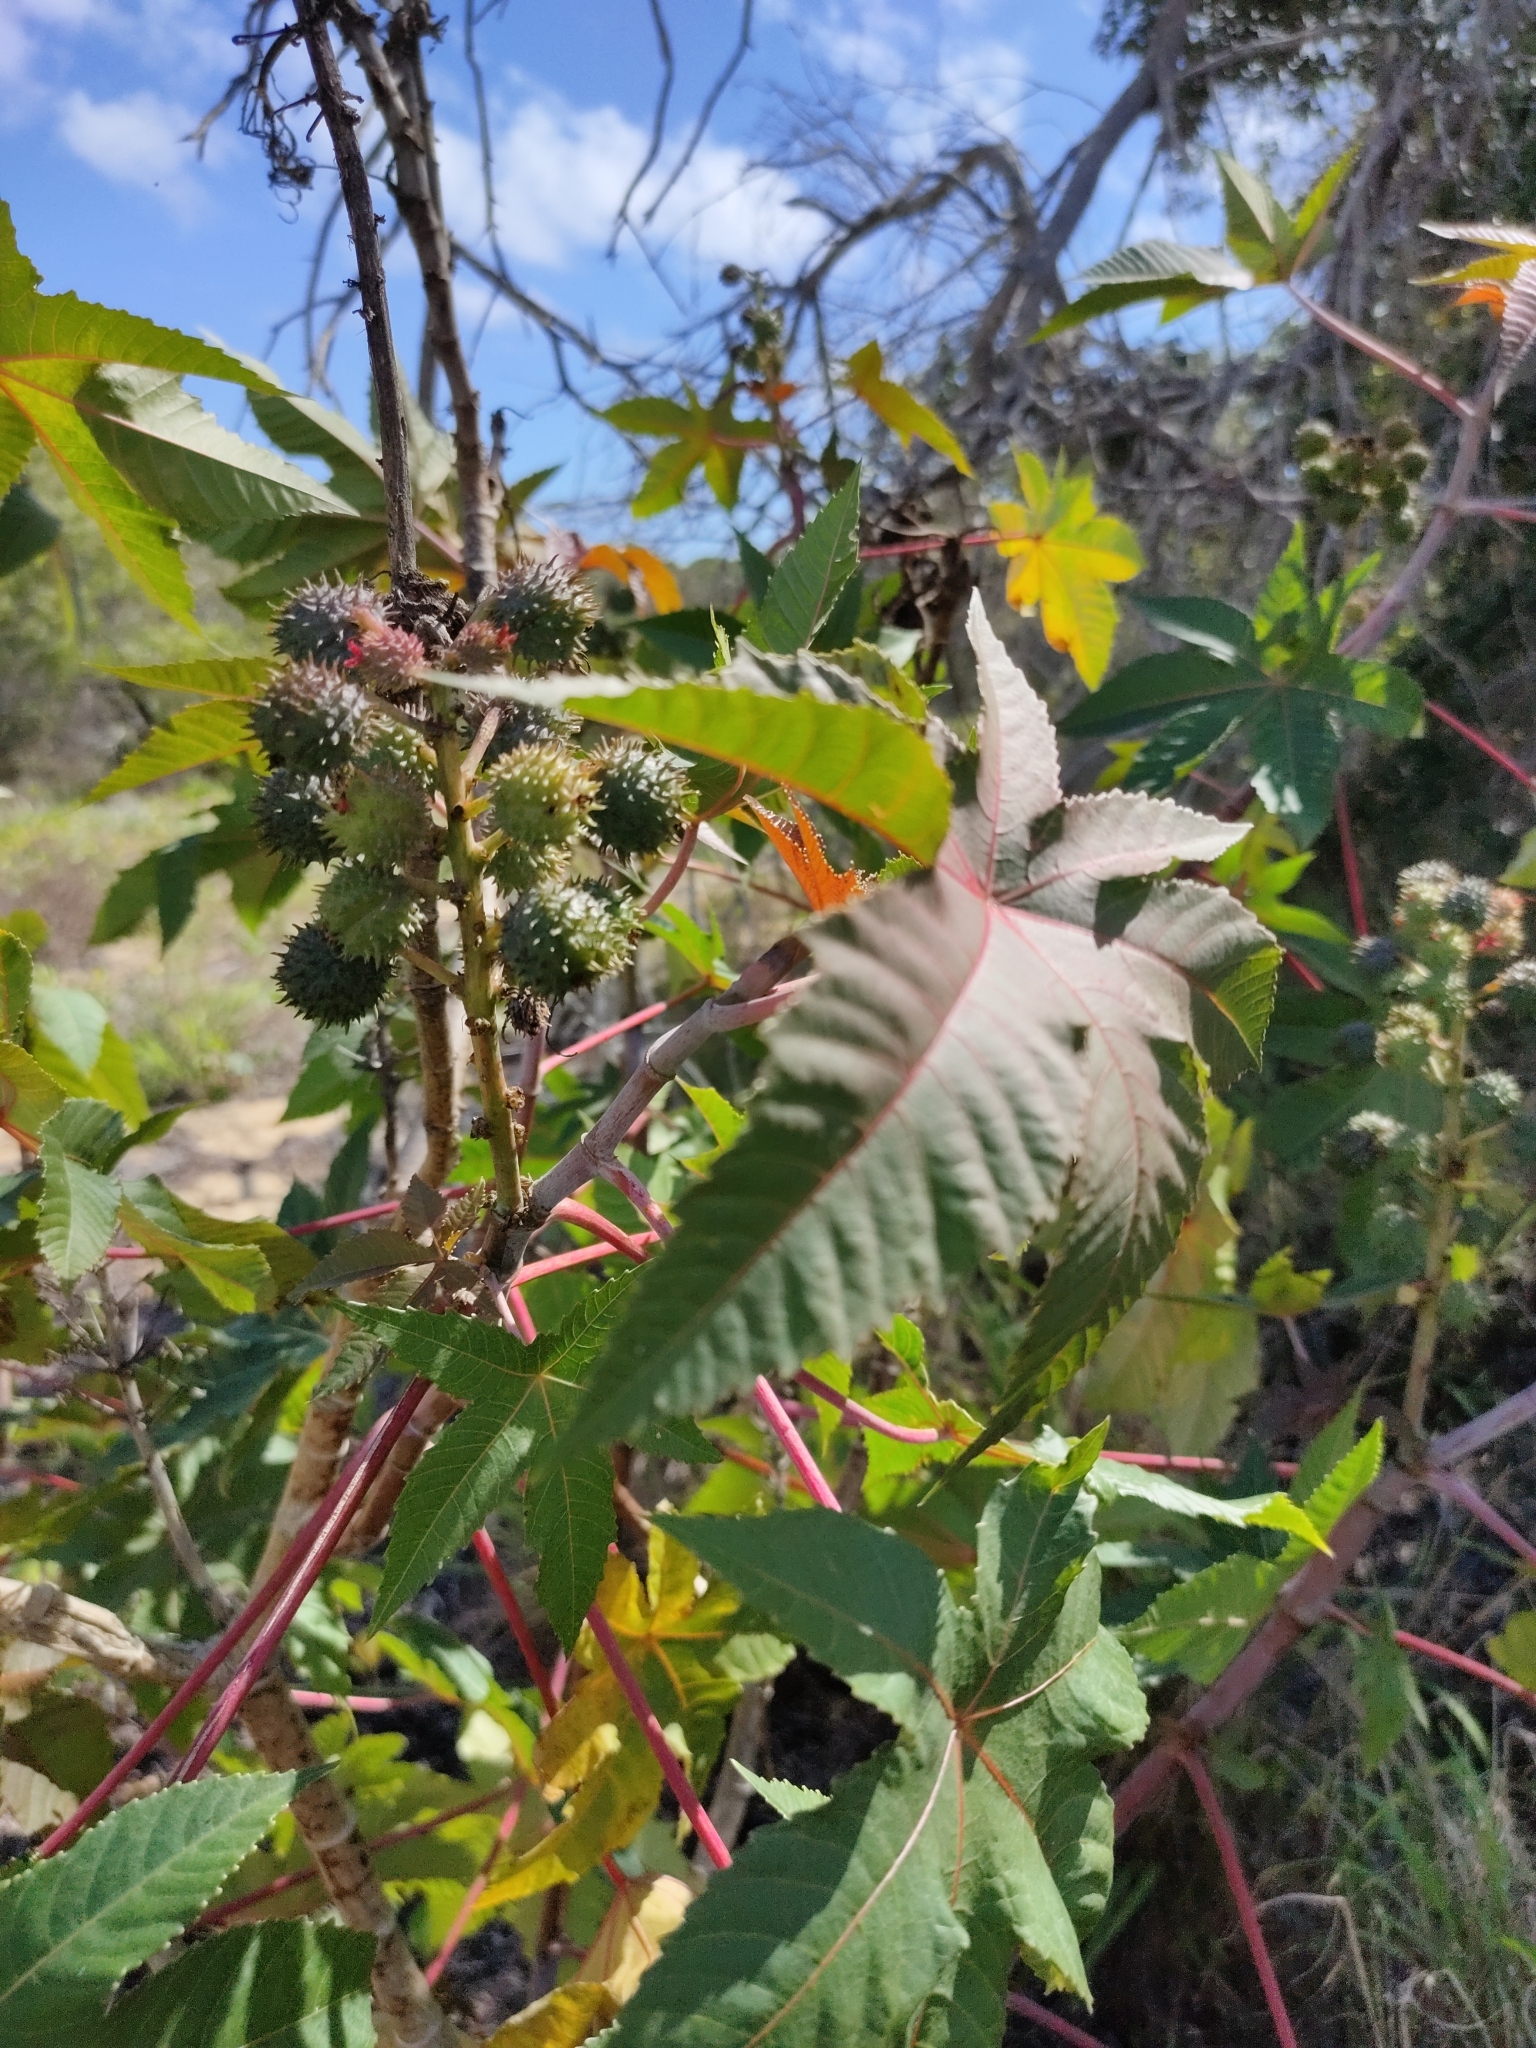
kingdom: Plantae
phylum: Tracheophyta
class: Magnoliopsida
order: Malpighiales
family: Euphorbiaceae
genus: Ricinus
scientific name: Ricinus communis
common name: Castor-oil-plant
